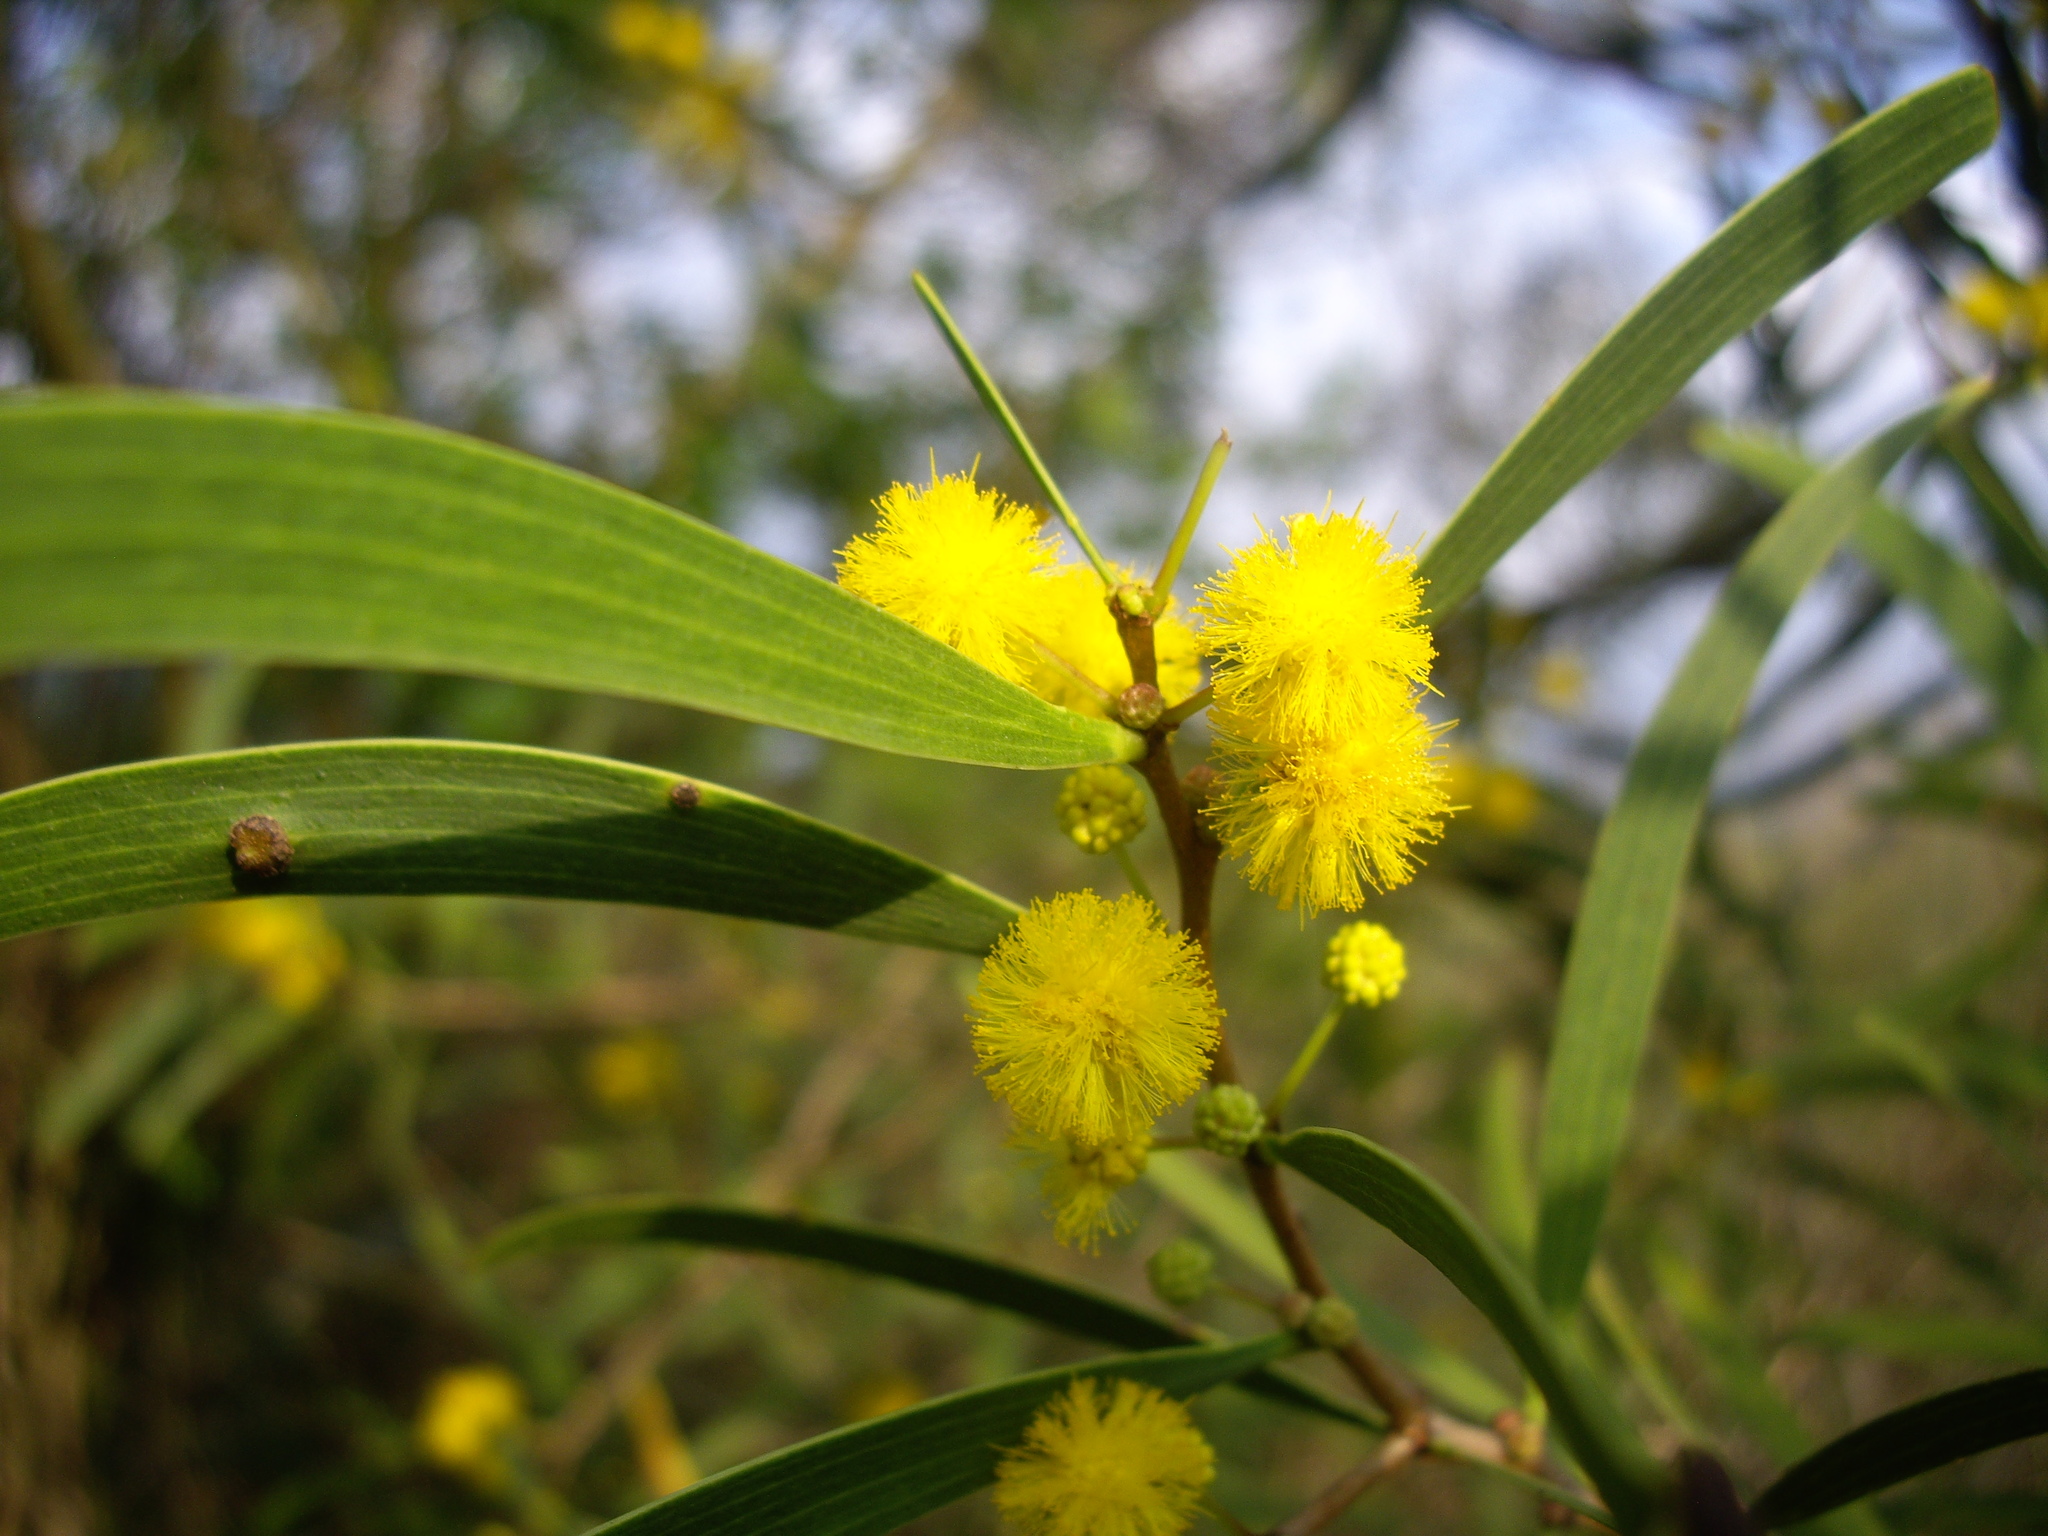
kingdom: Plantae
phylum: Tracheophyta
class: Magnoliopsida
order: Fabales
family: Fabaceae
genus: Acacia
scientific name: Acacia confusa
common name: Formosan koa
